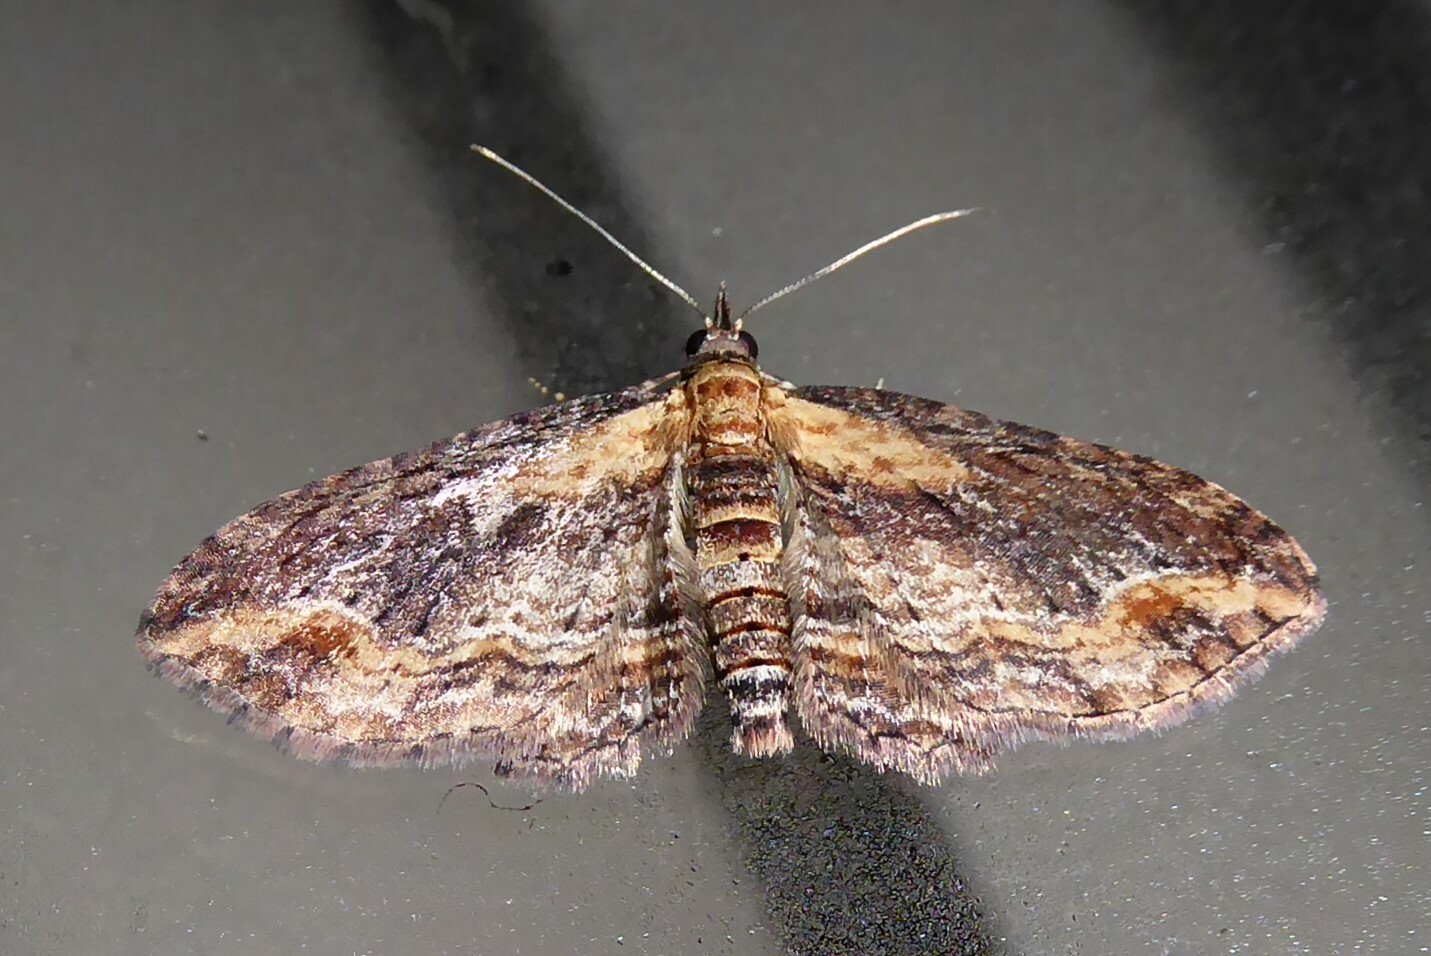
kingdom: Animalia
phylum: Arthropoda
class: Insecta
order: Lepidoptera
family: Geometridae
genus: Chloroclystis
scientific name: Chloroclystis filata
